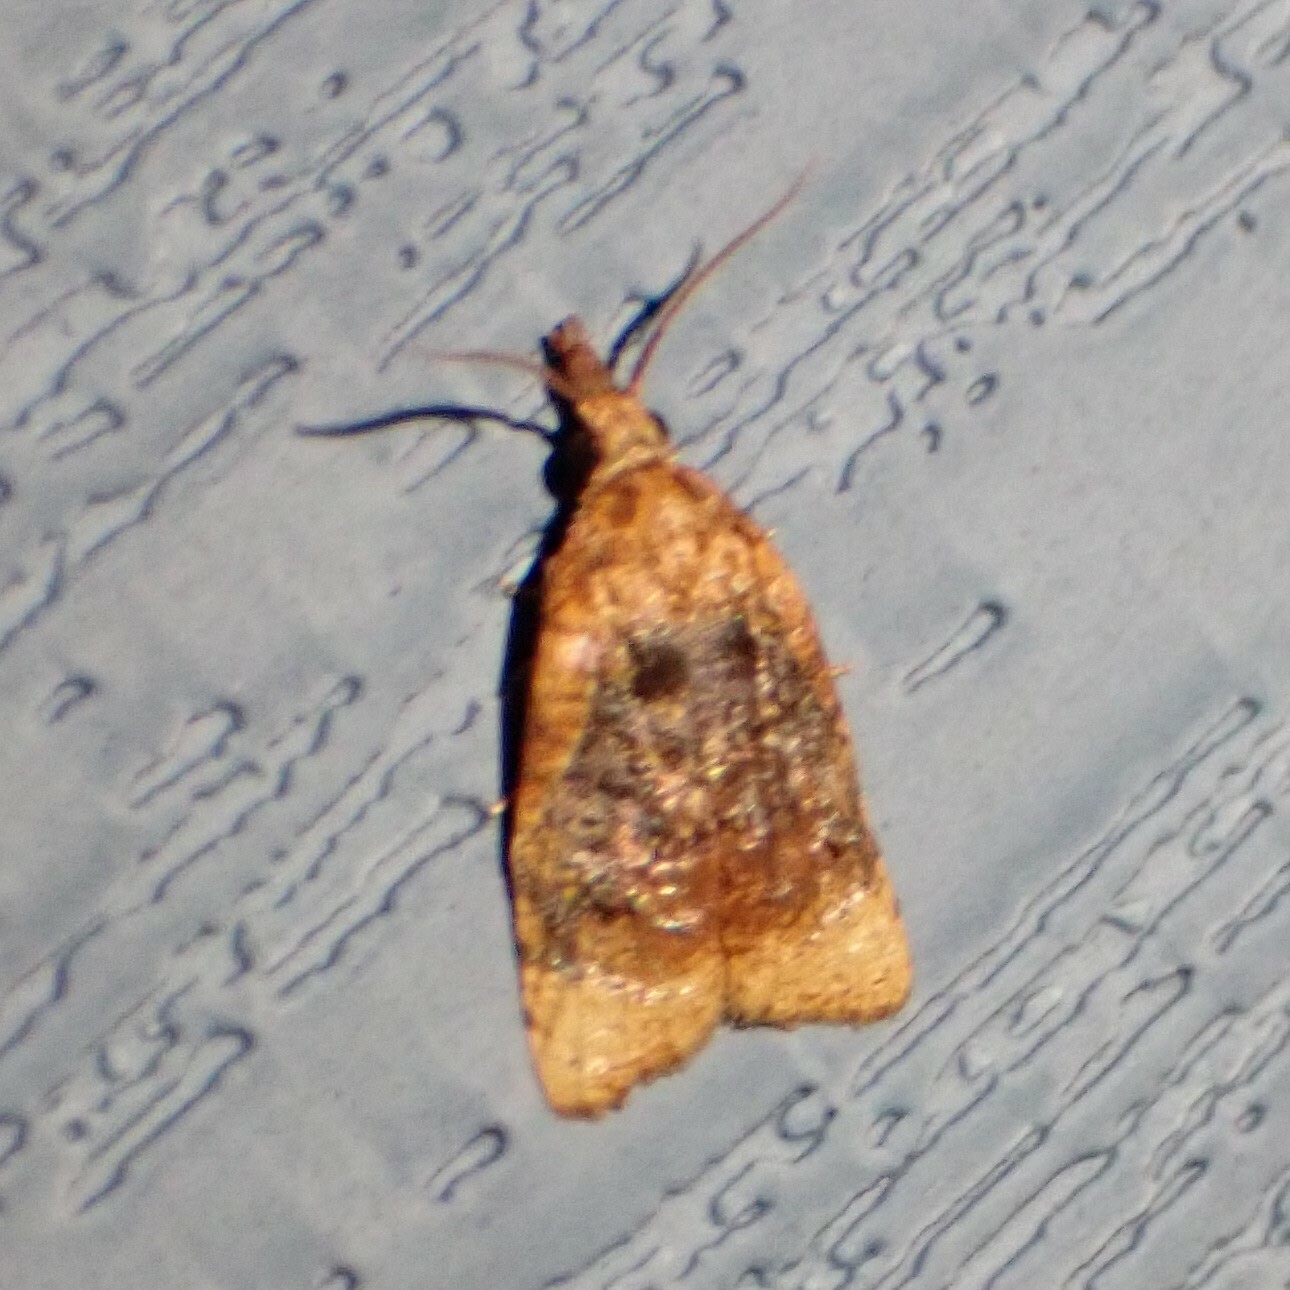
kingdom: Animalia
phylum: Arthropoda
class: Insecta
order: Lepidoptera
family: Tortricidae
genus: Platynota
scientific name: Platynota flavedana
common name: Black-shaded platynota moth
